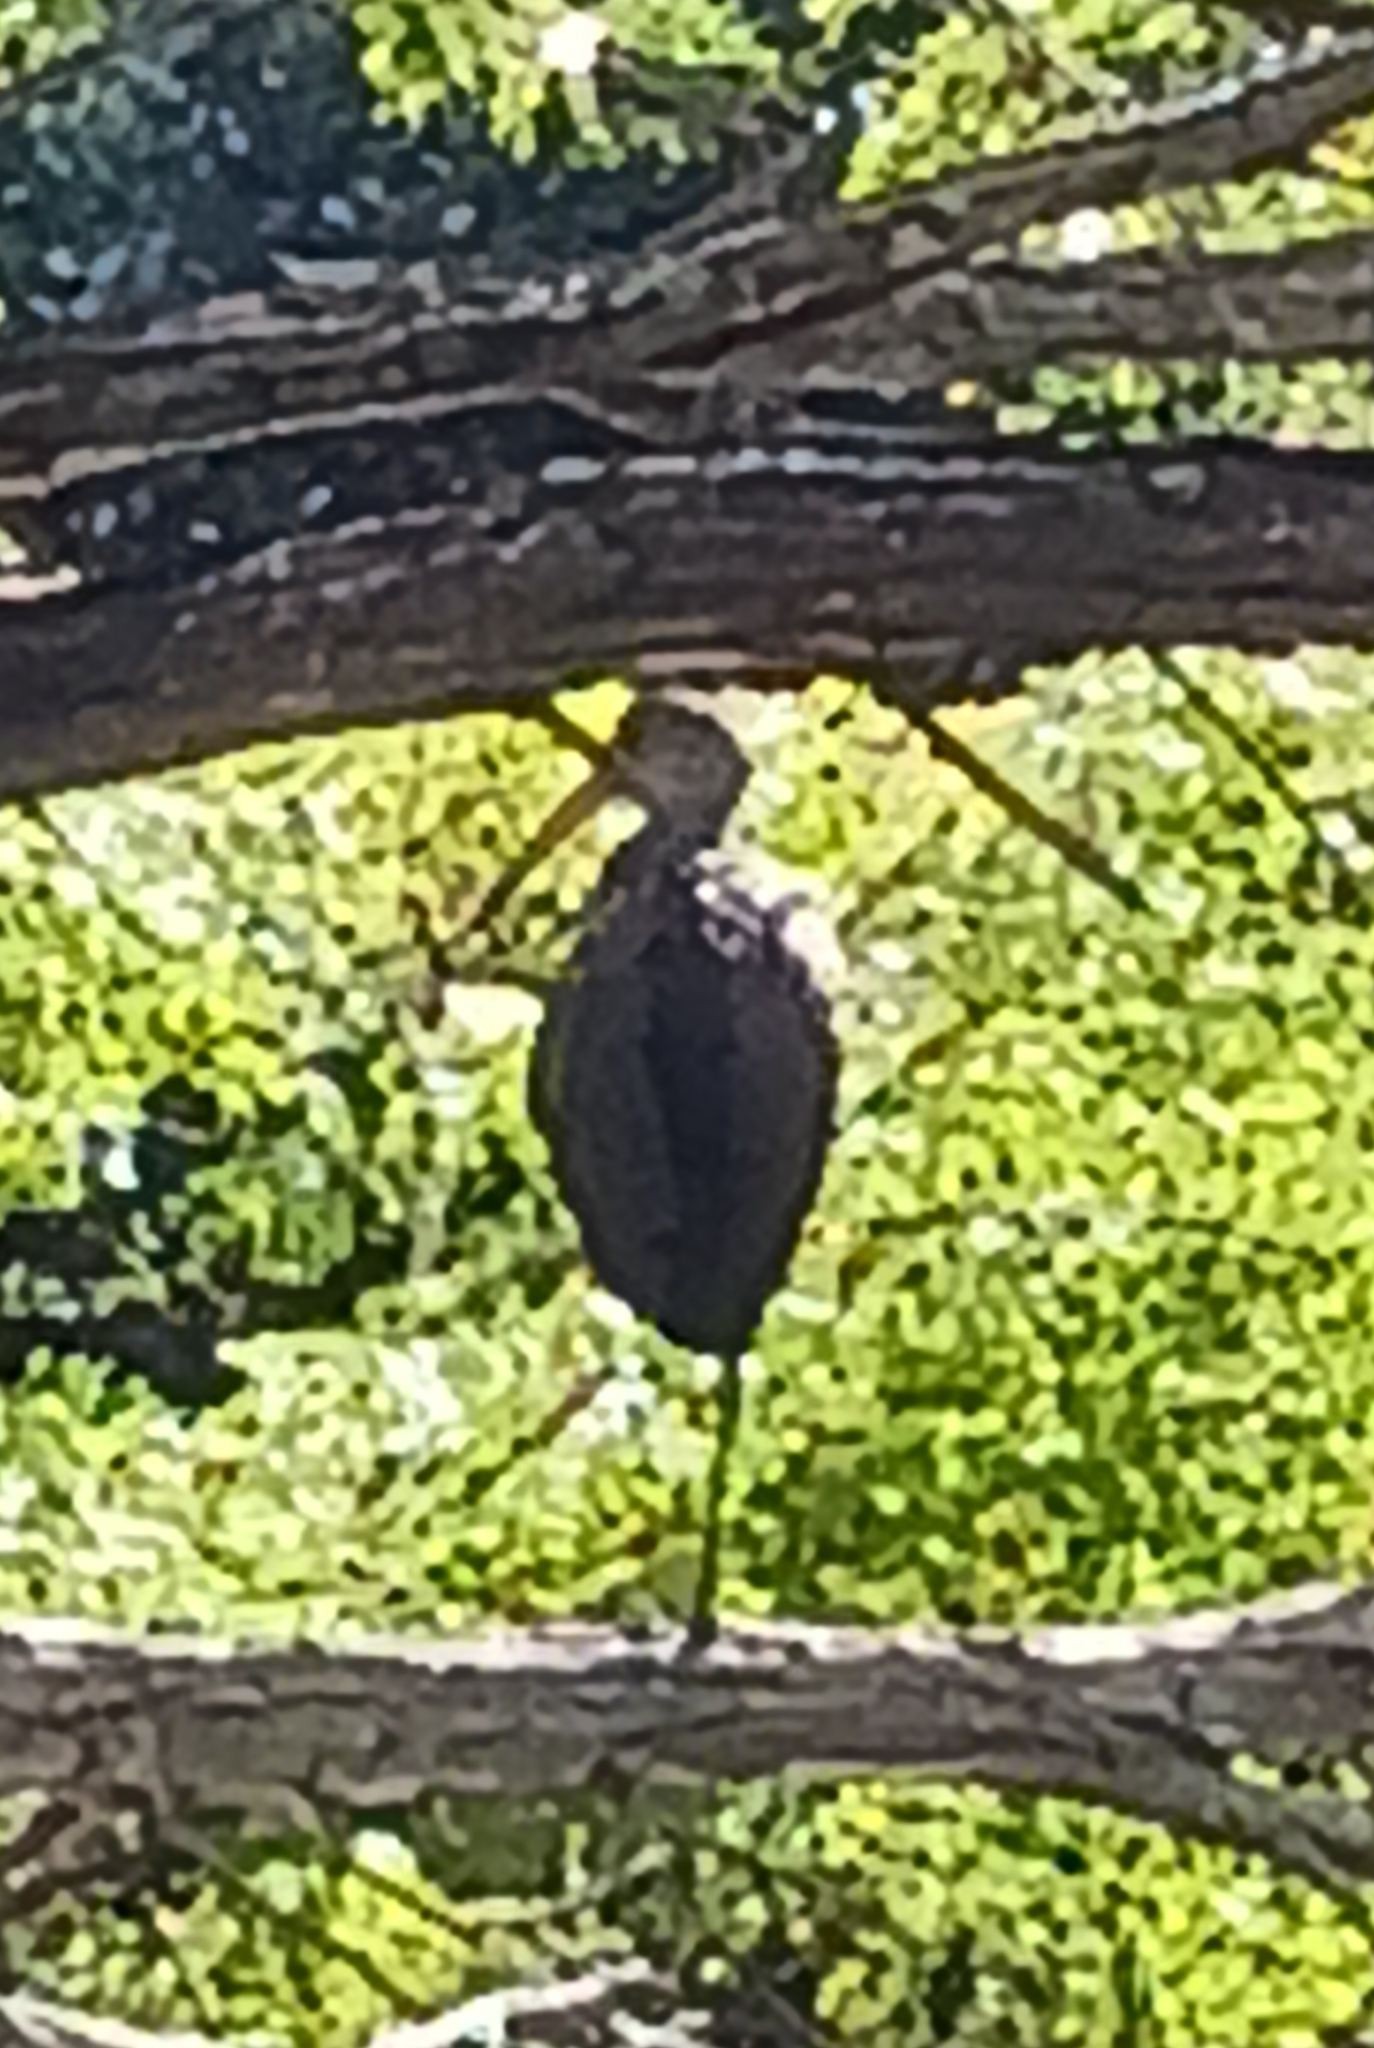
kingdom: Animalia
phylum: Chordata
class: Aves
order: Gruiformes
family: Aramidae
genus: Aramus
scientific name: Aramus guarauna
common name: Limpkin
